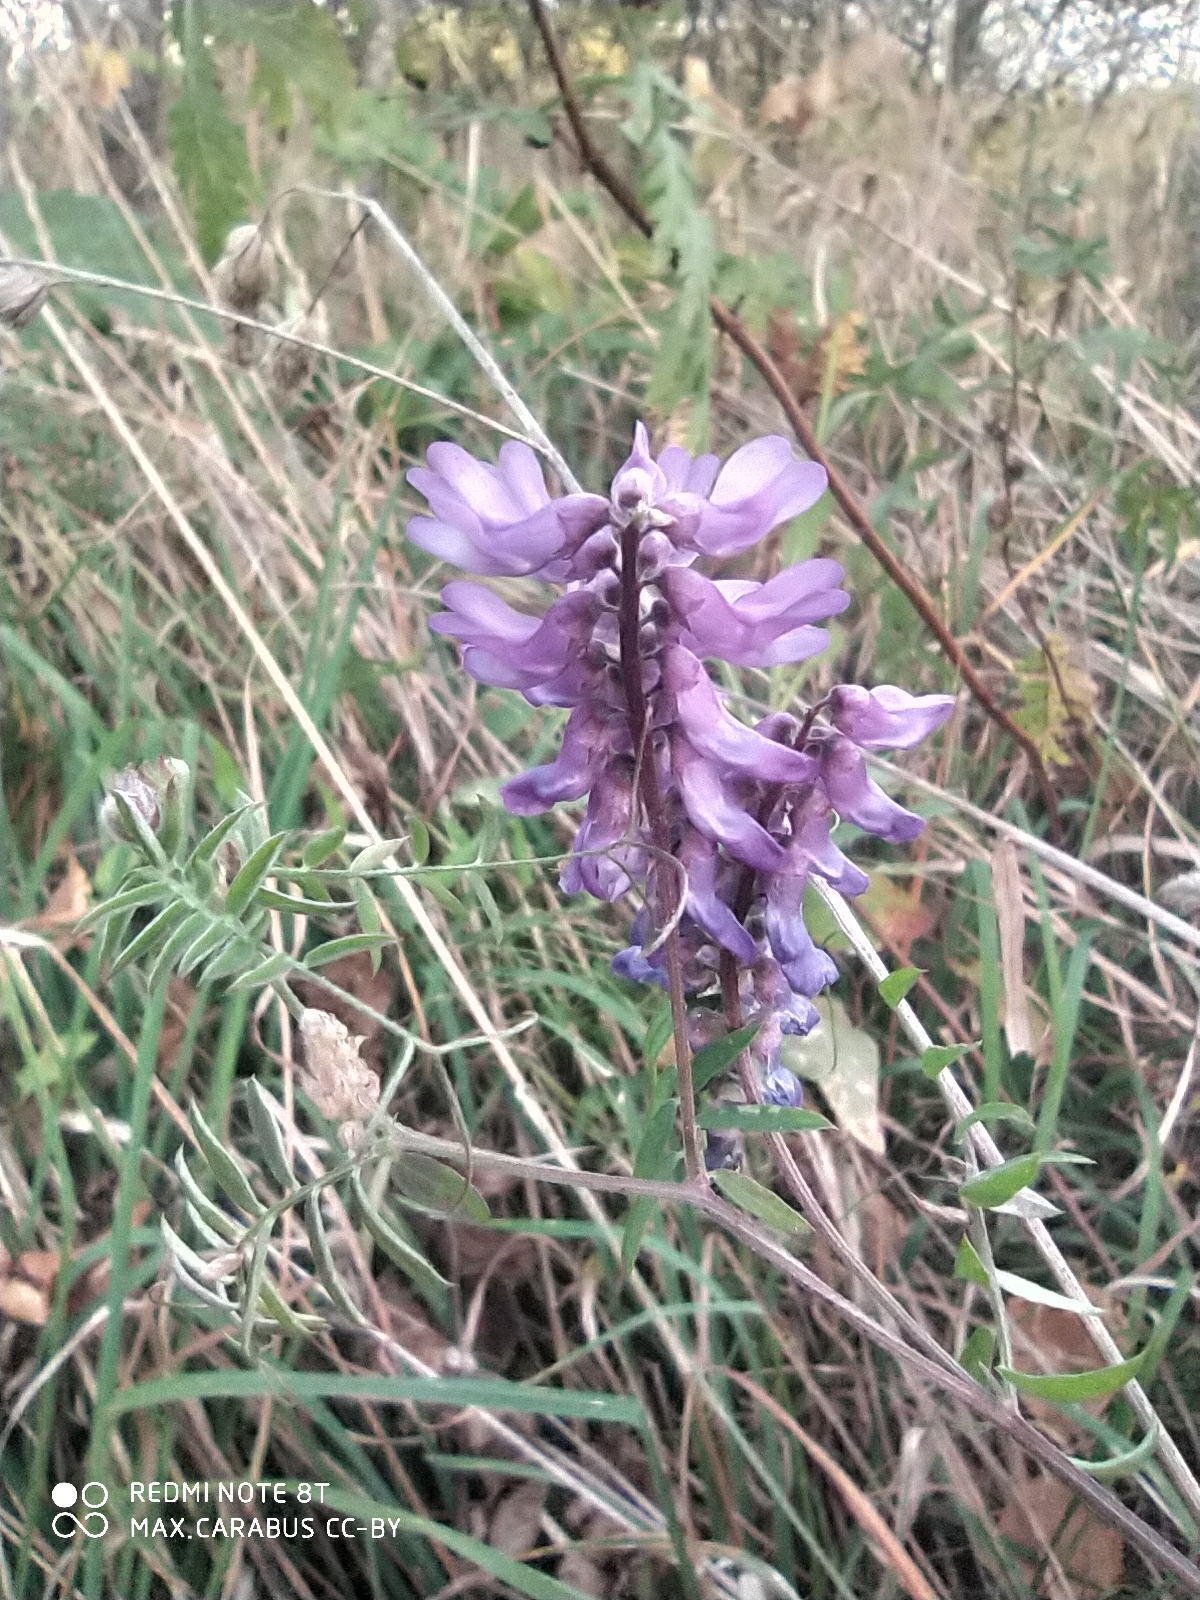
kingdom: Plantae
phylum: Tracheophyta
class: Magnoliopsida
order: Fabales
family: Fabaceae
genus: Vicia
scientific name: Vicia cracca
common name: Bird vetch
